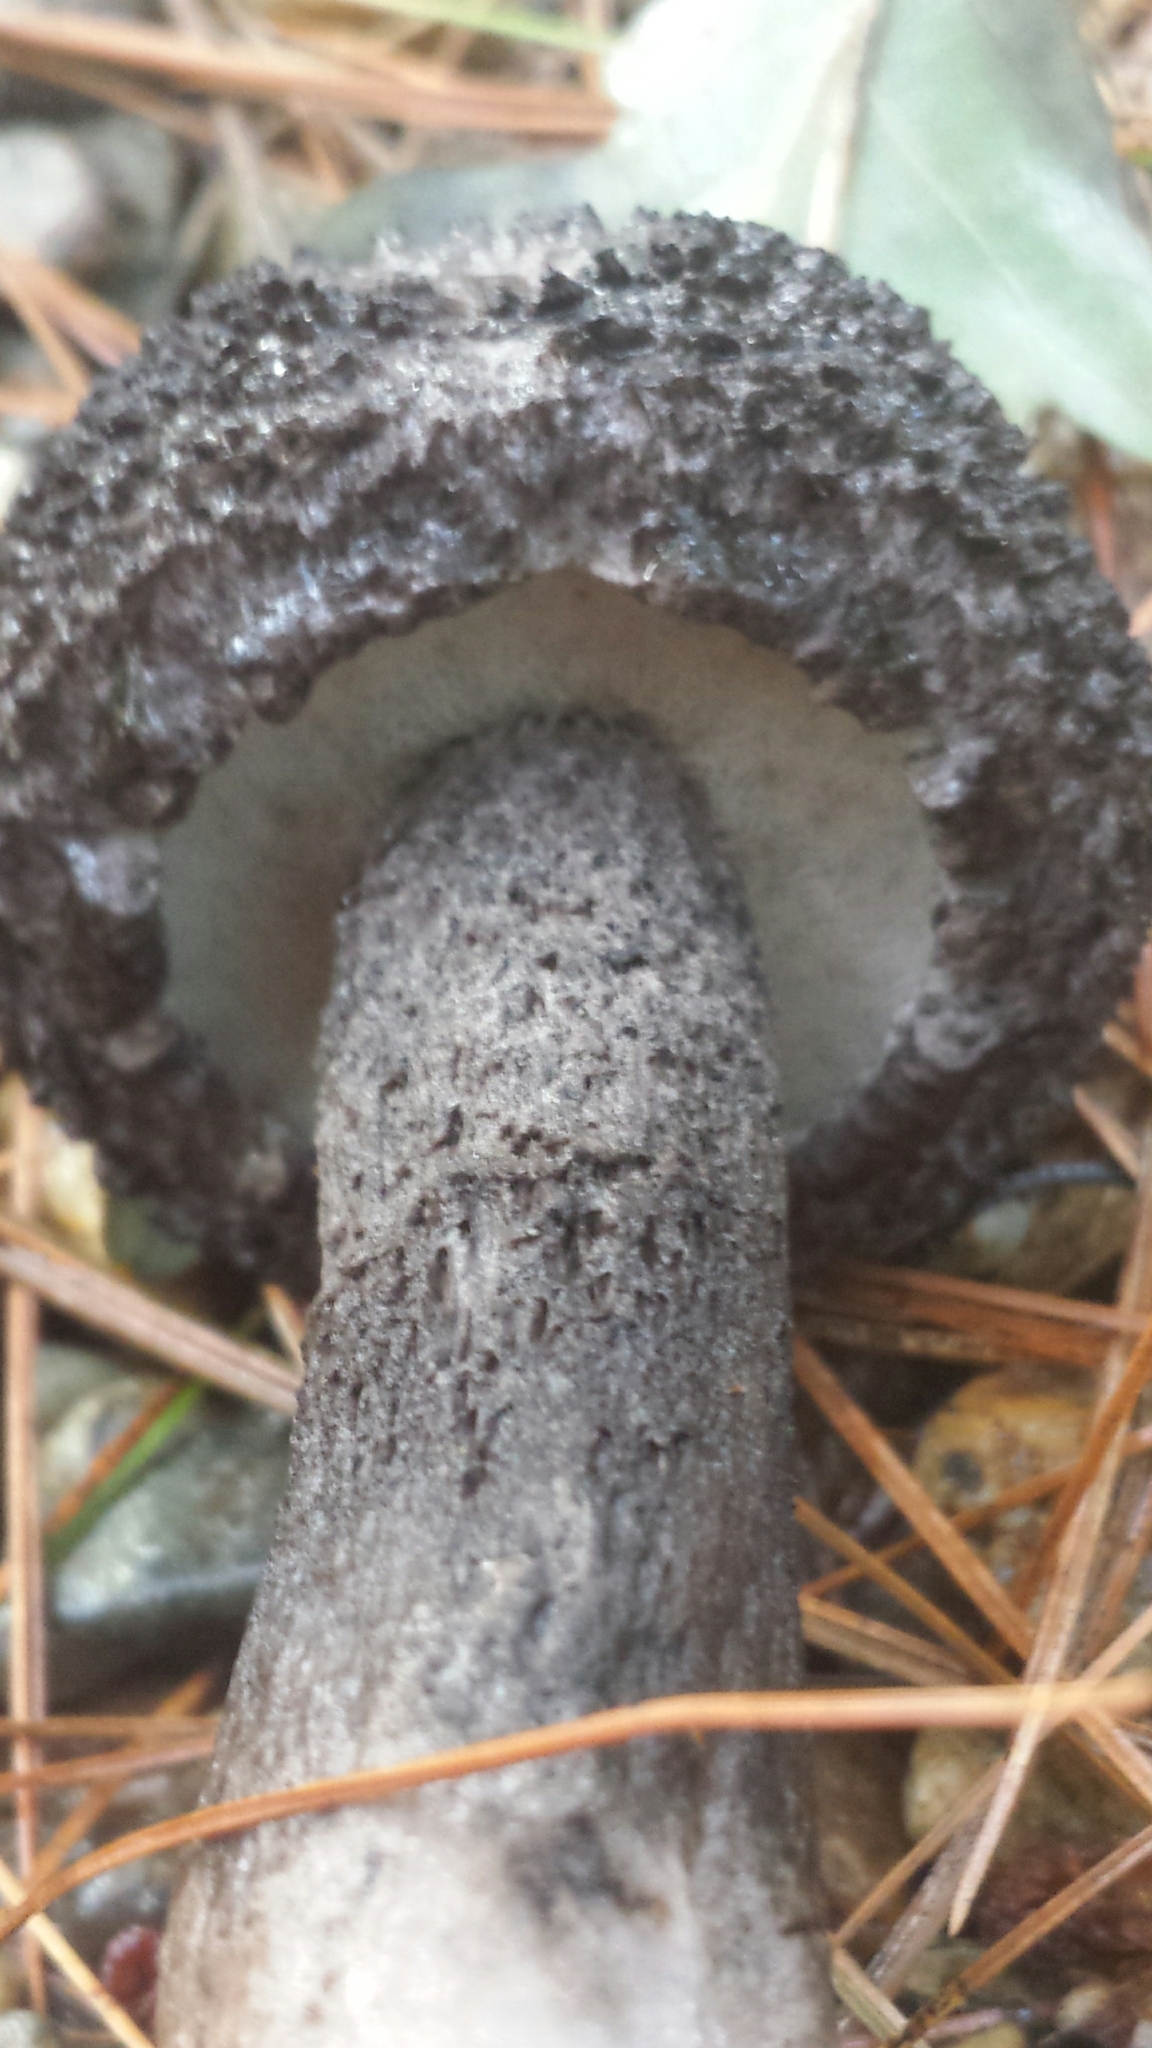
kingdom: Fungi
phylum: Basidiomycota
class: Agaricomycetes
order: Boletales
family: Boletaceae
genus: Strobilomyces
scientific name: Strobilomyces strobilaceus
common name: Old man of the woods
